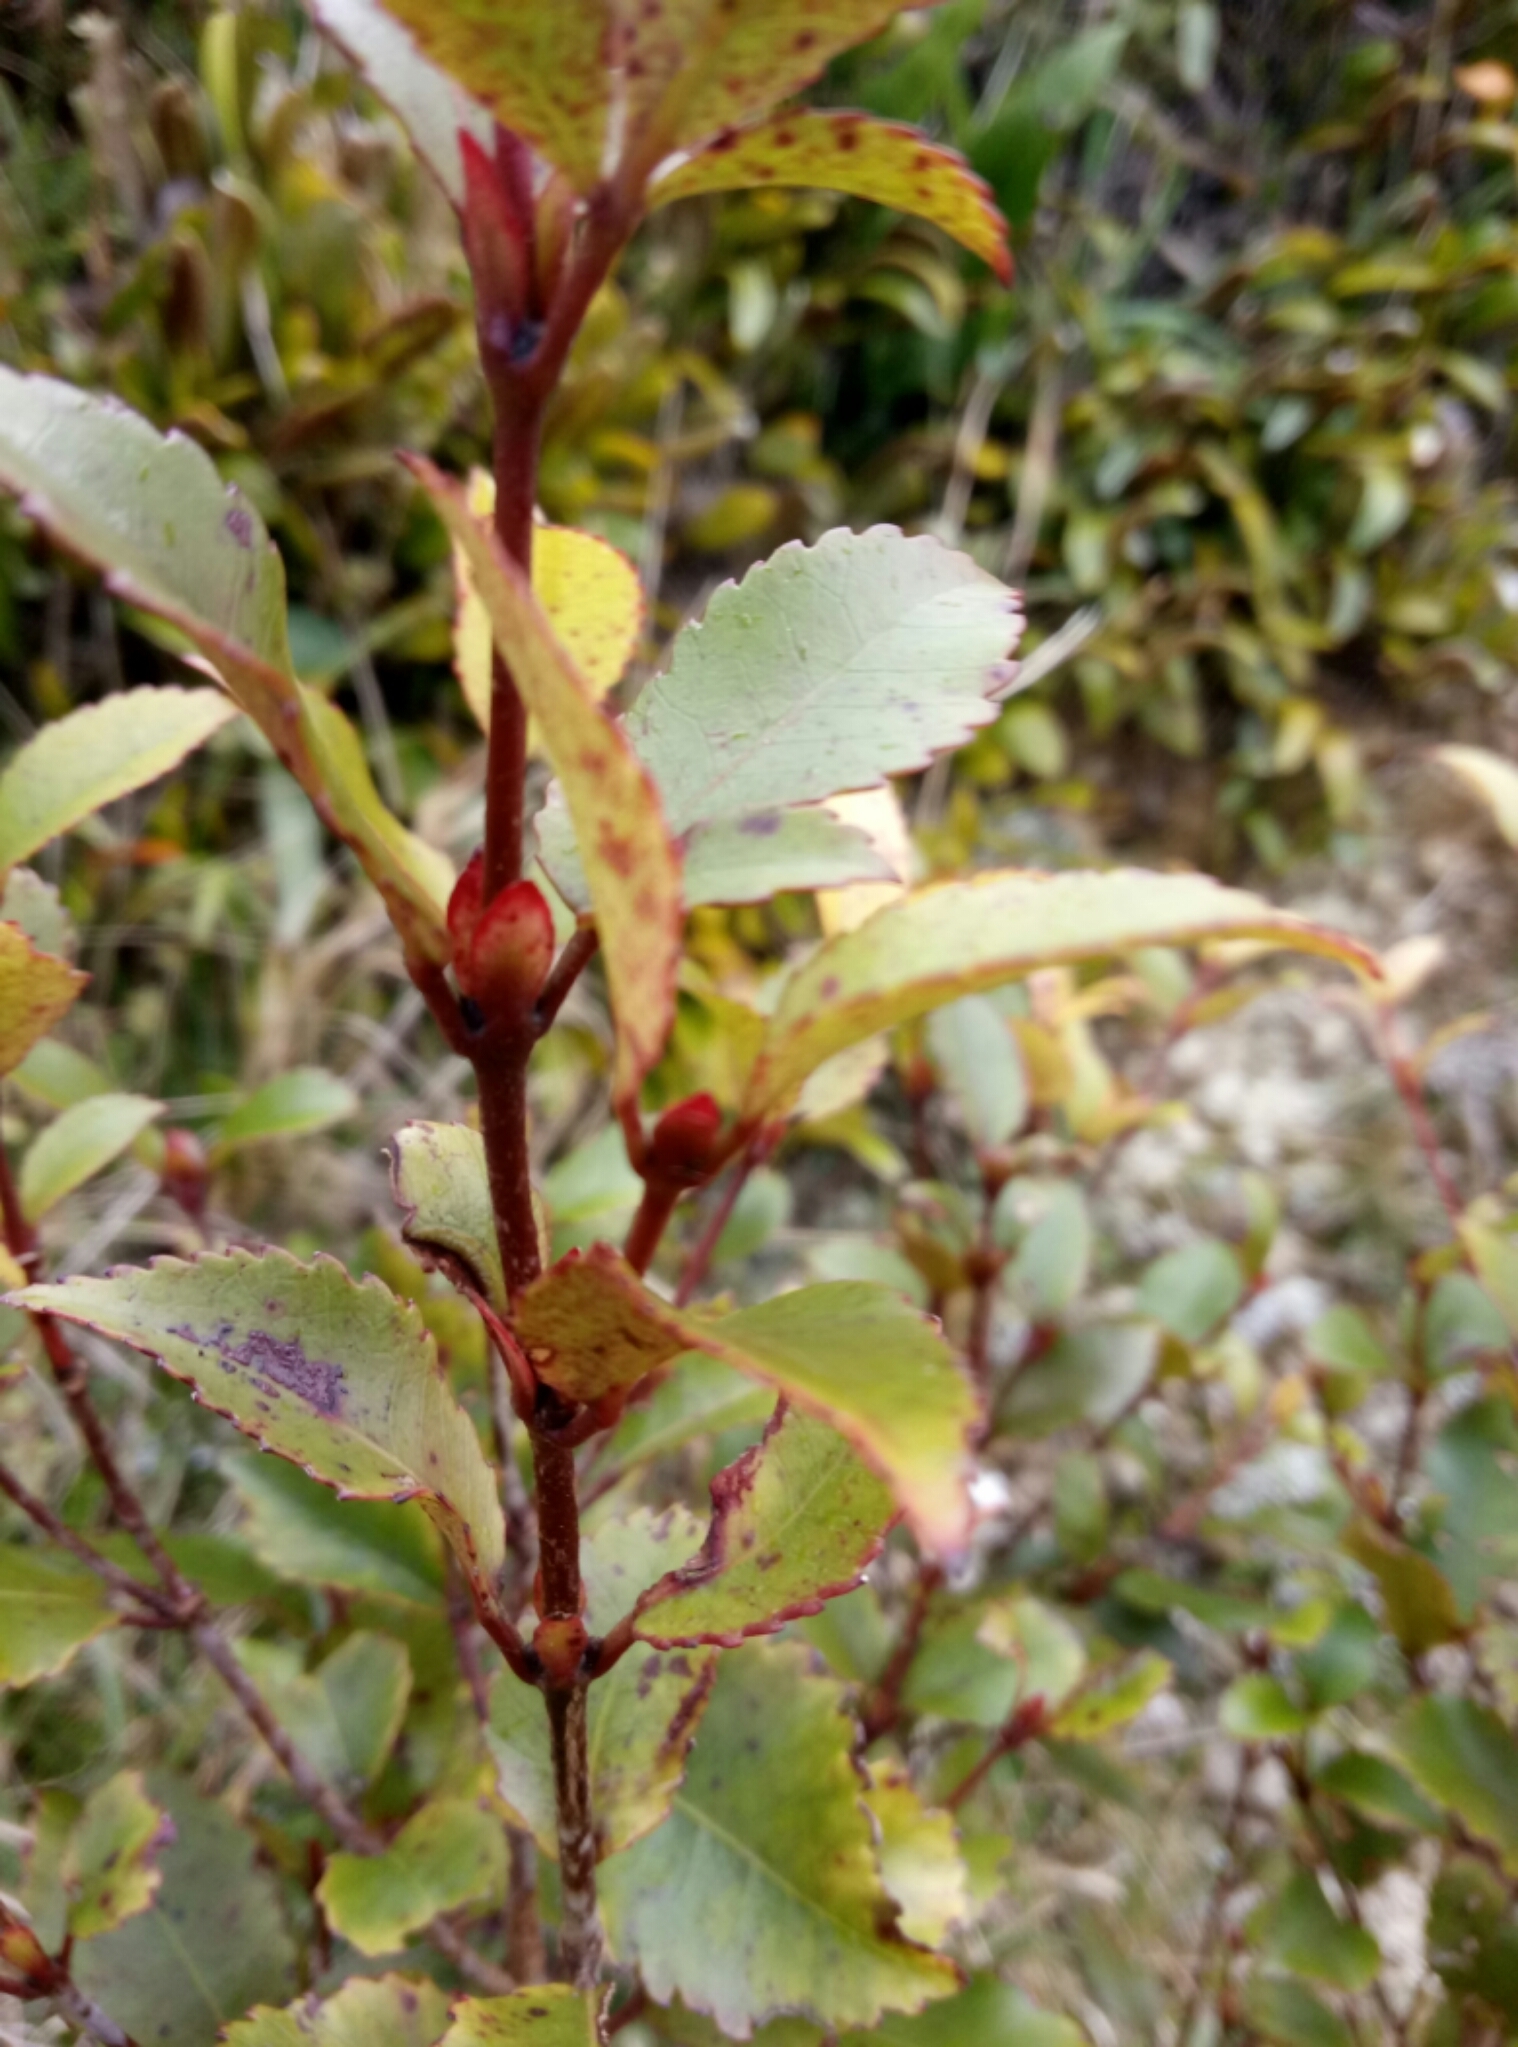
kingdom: Plantae
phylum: Tracheophyta
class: Magnoliopsida
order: Oxalidales
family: Cunoniaceae
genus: Pterophylla
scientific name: Pterophylla racemosa
